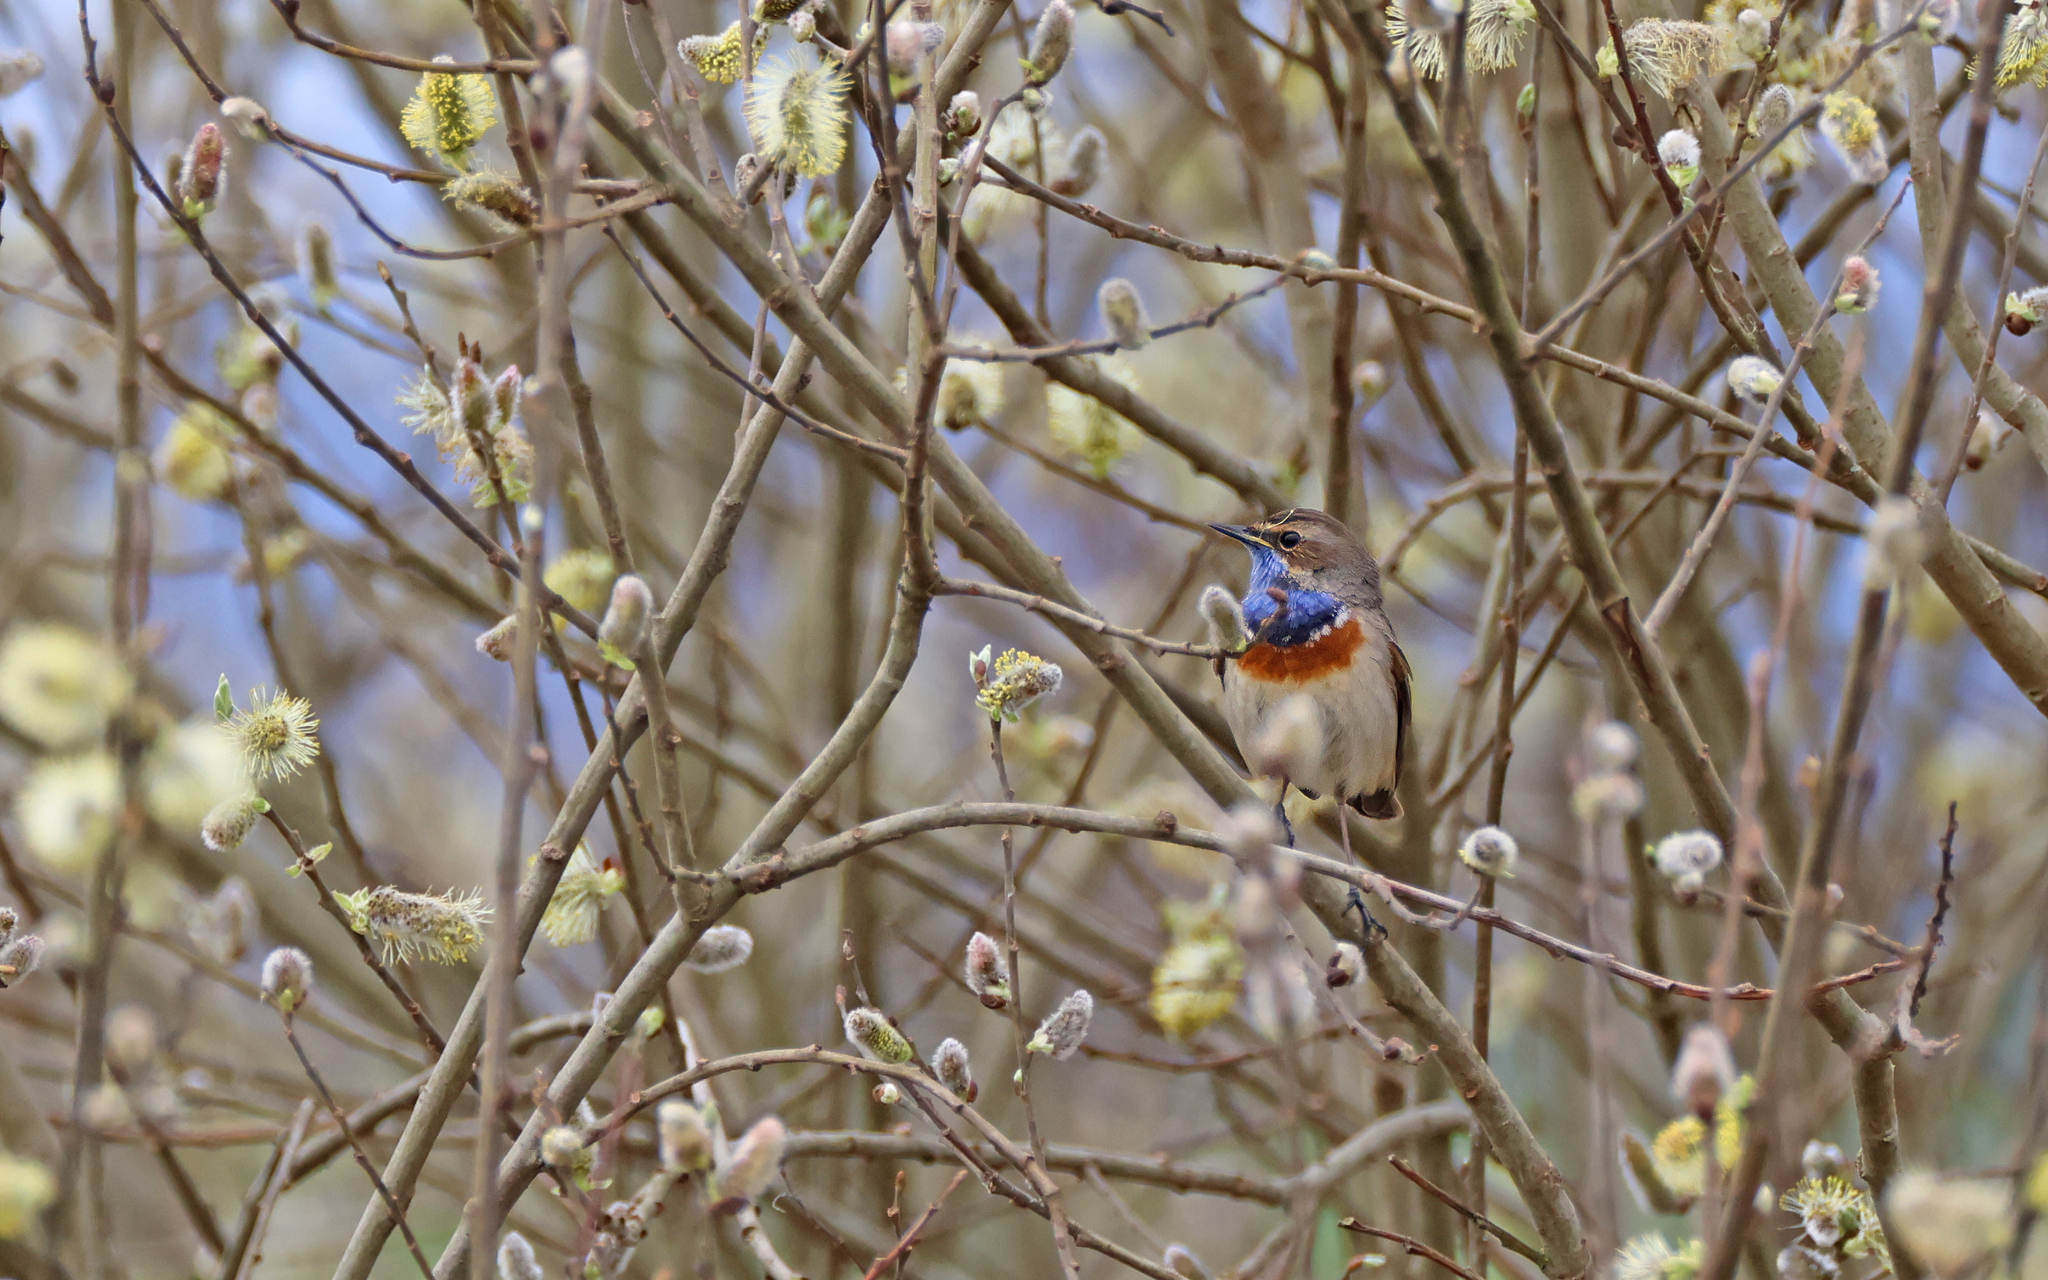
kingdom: Animalia
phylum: Chordata
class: Aves
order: Passeriformes
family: Muscicapidae
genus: Luscinia
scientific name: Luscinia svecica
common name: Bluethroat
